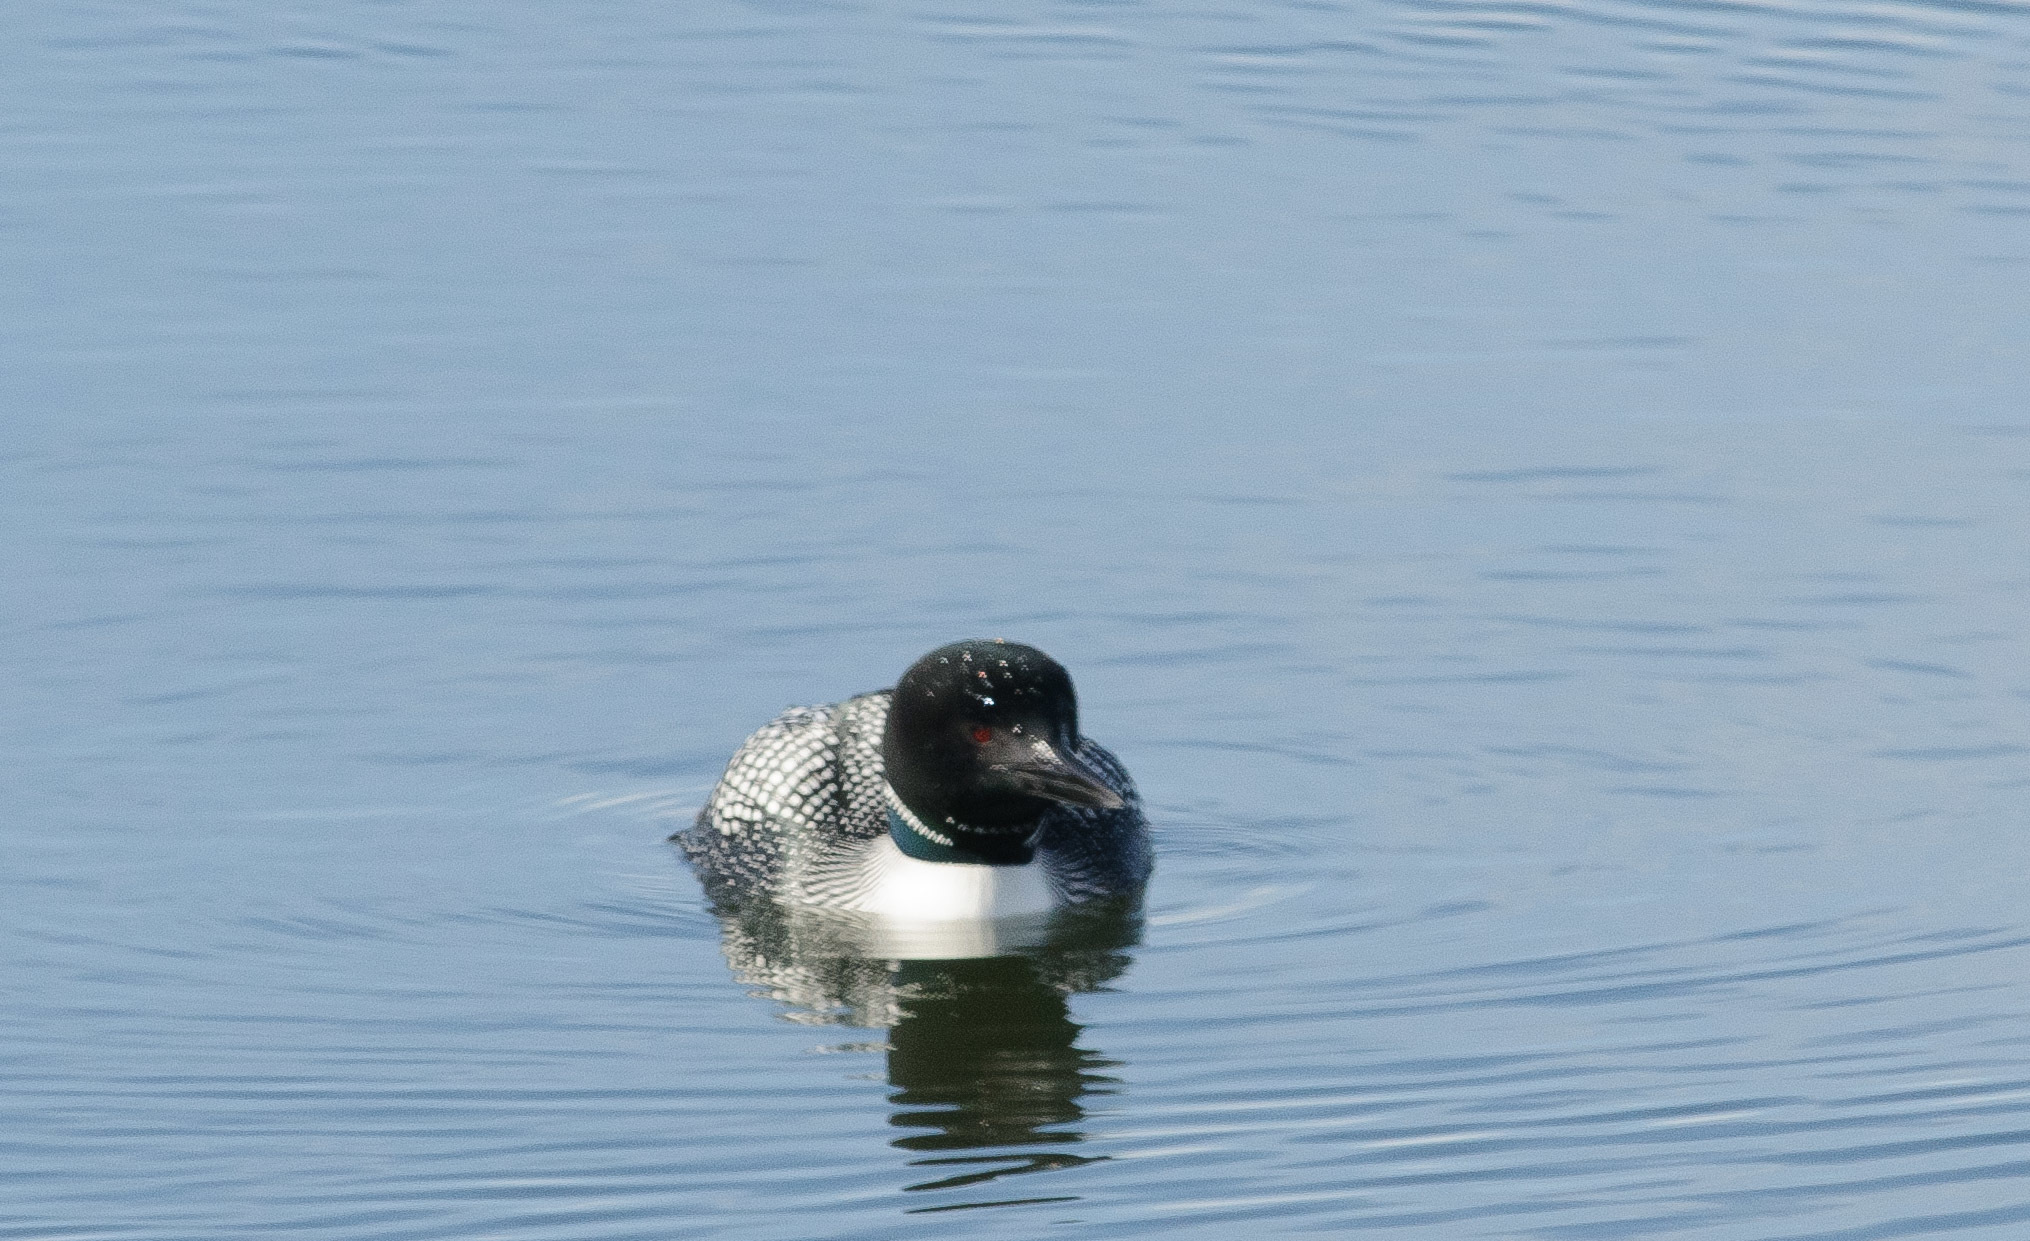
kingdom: Animalia
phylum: Chordata
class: Aves
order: Gaviiformes
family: Gaviidae
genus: Gavia
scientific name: Gavia immer
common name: Common loon
